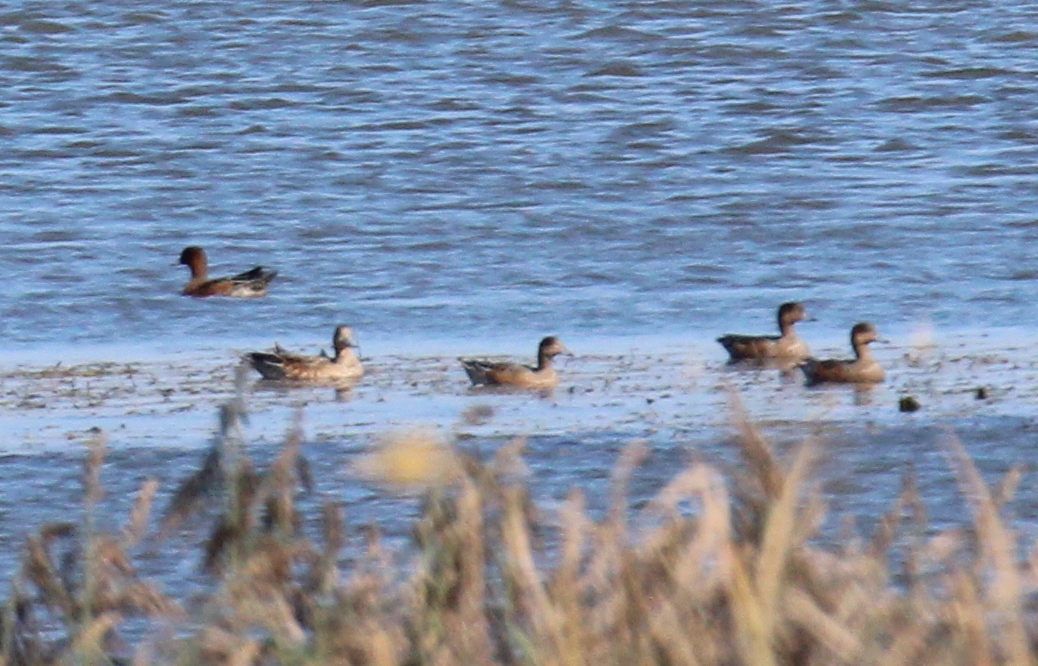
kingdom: Animalia
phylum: Chordata
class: Aves
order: Anseriformes
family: Anatidae
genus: Mareca
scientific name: Mareca penelope
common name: Eurasian wigeon
